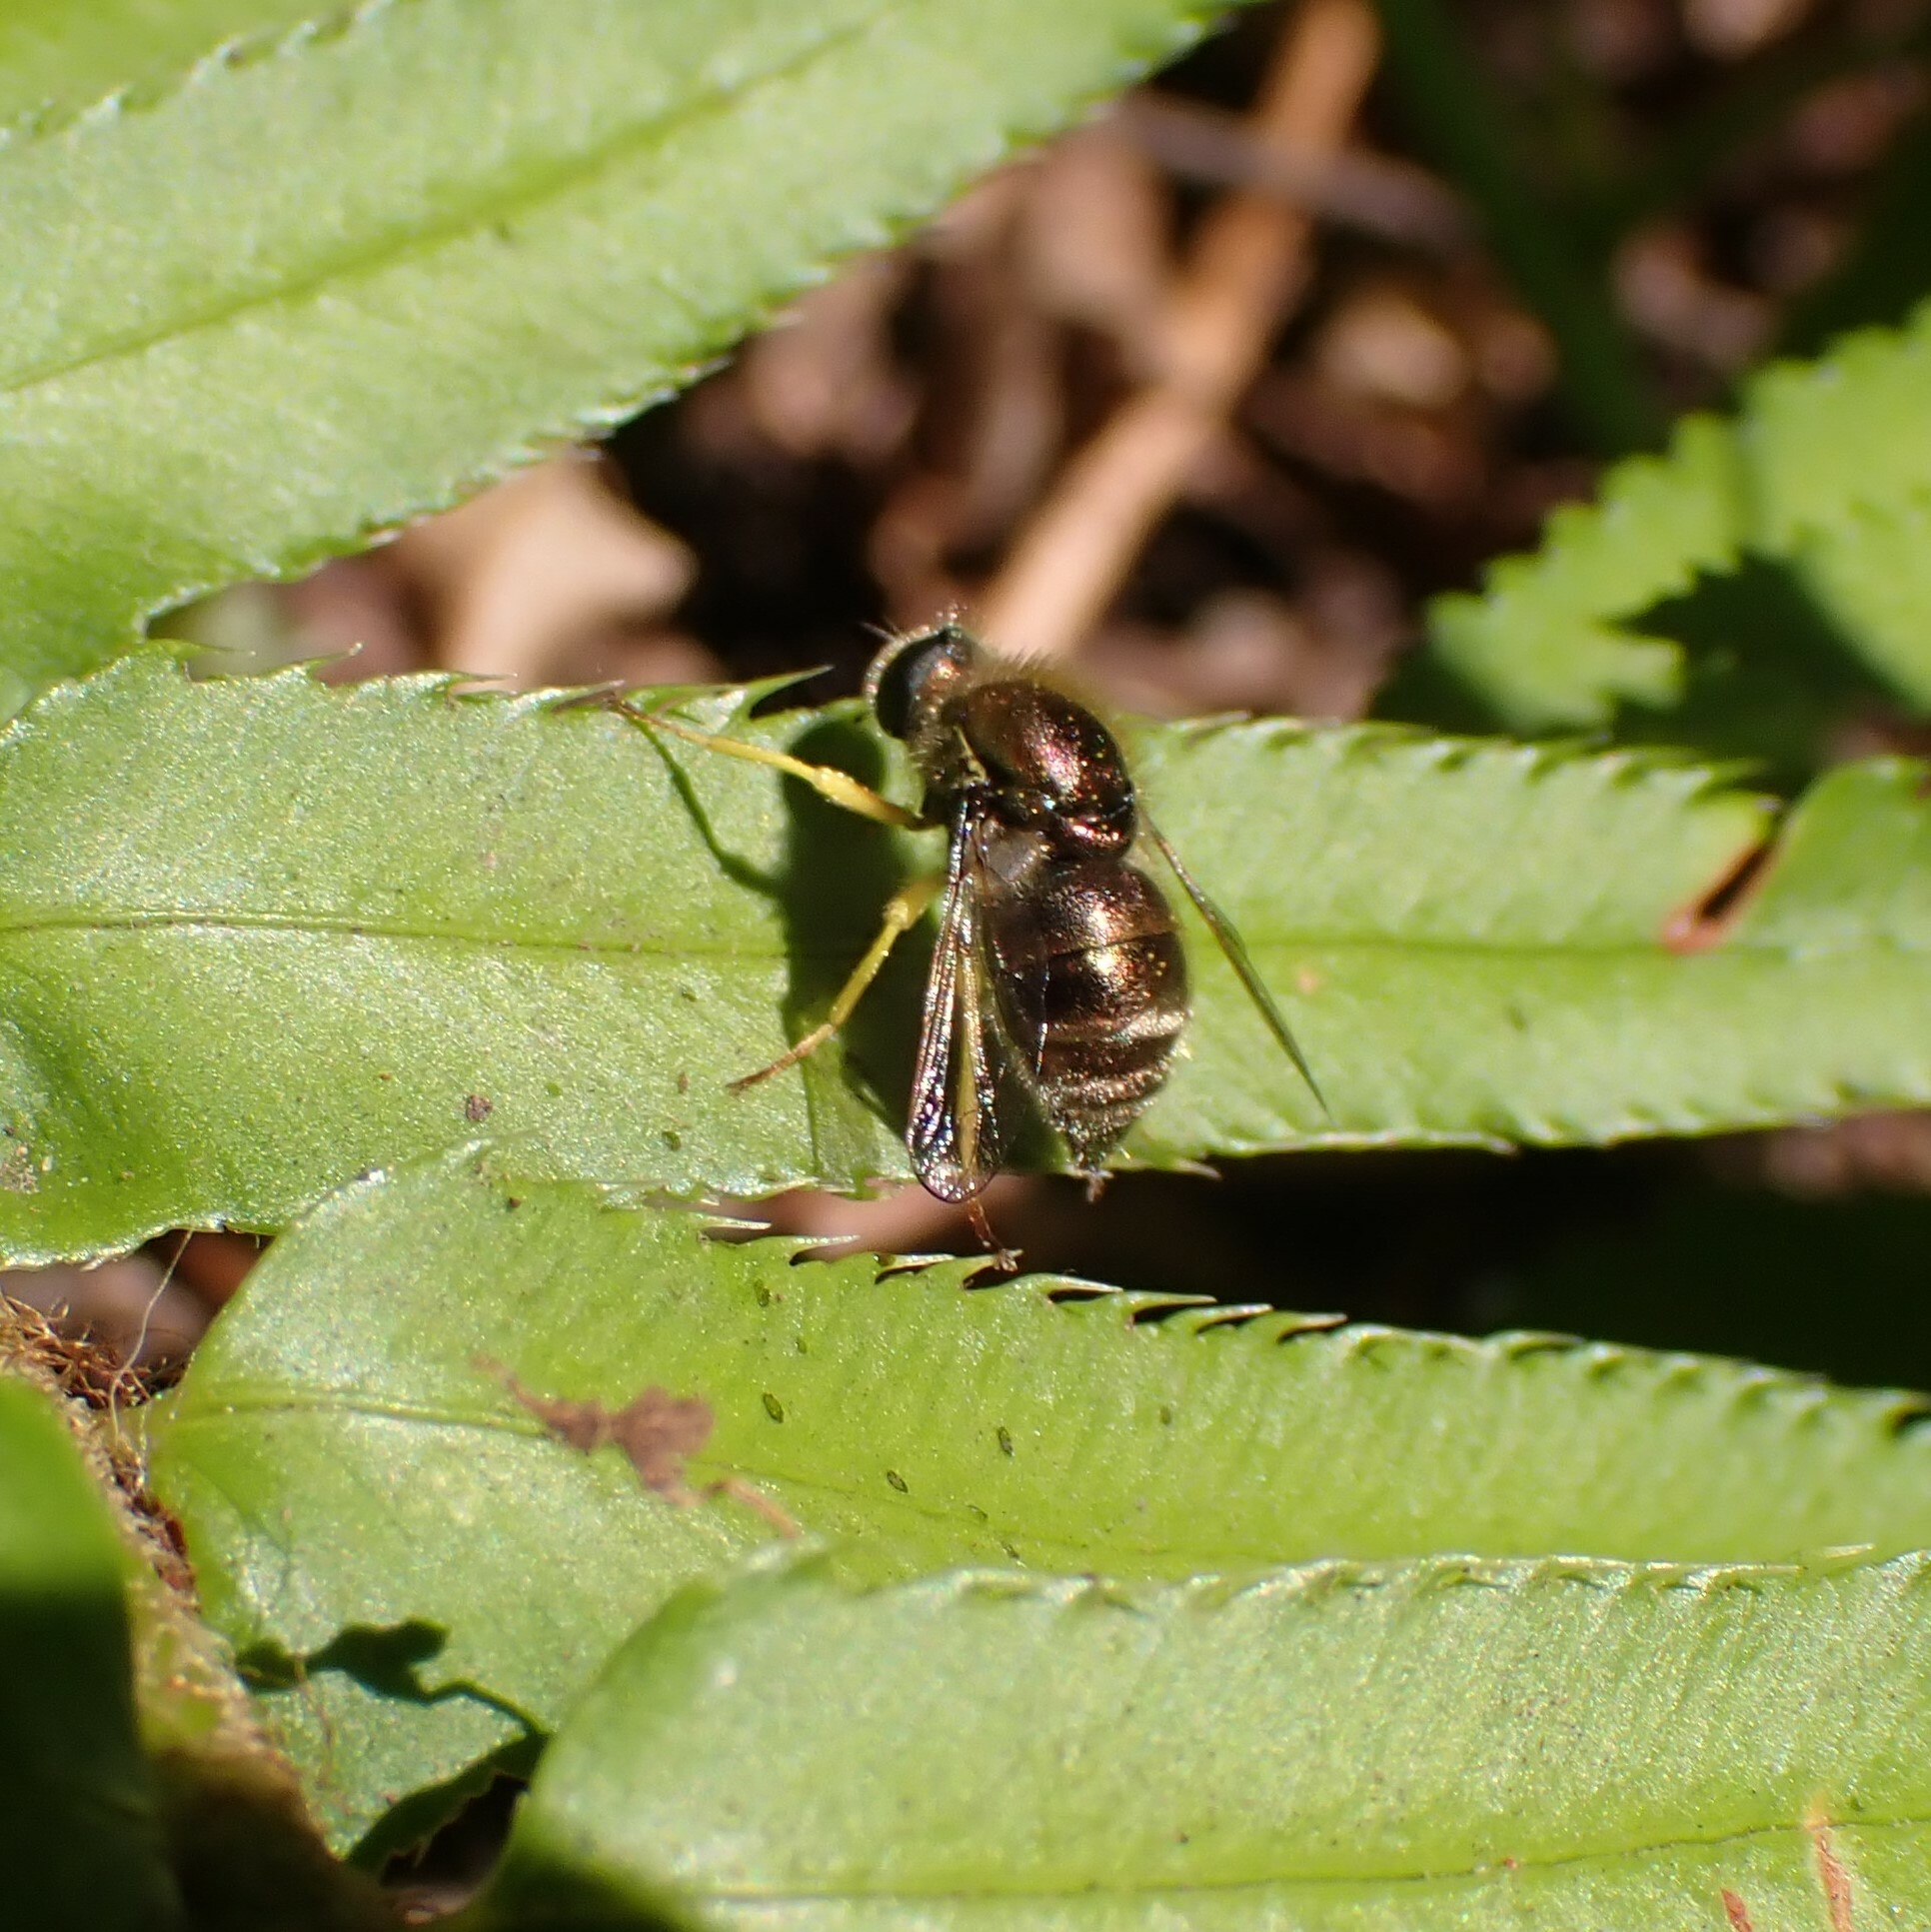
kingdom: Animalia
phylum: Arthropoda
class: Insecta
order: Diptera
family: Acroceridae
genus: Eulonchus
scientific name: Eulonchus sapphirinus
